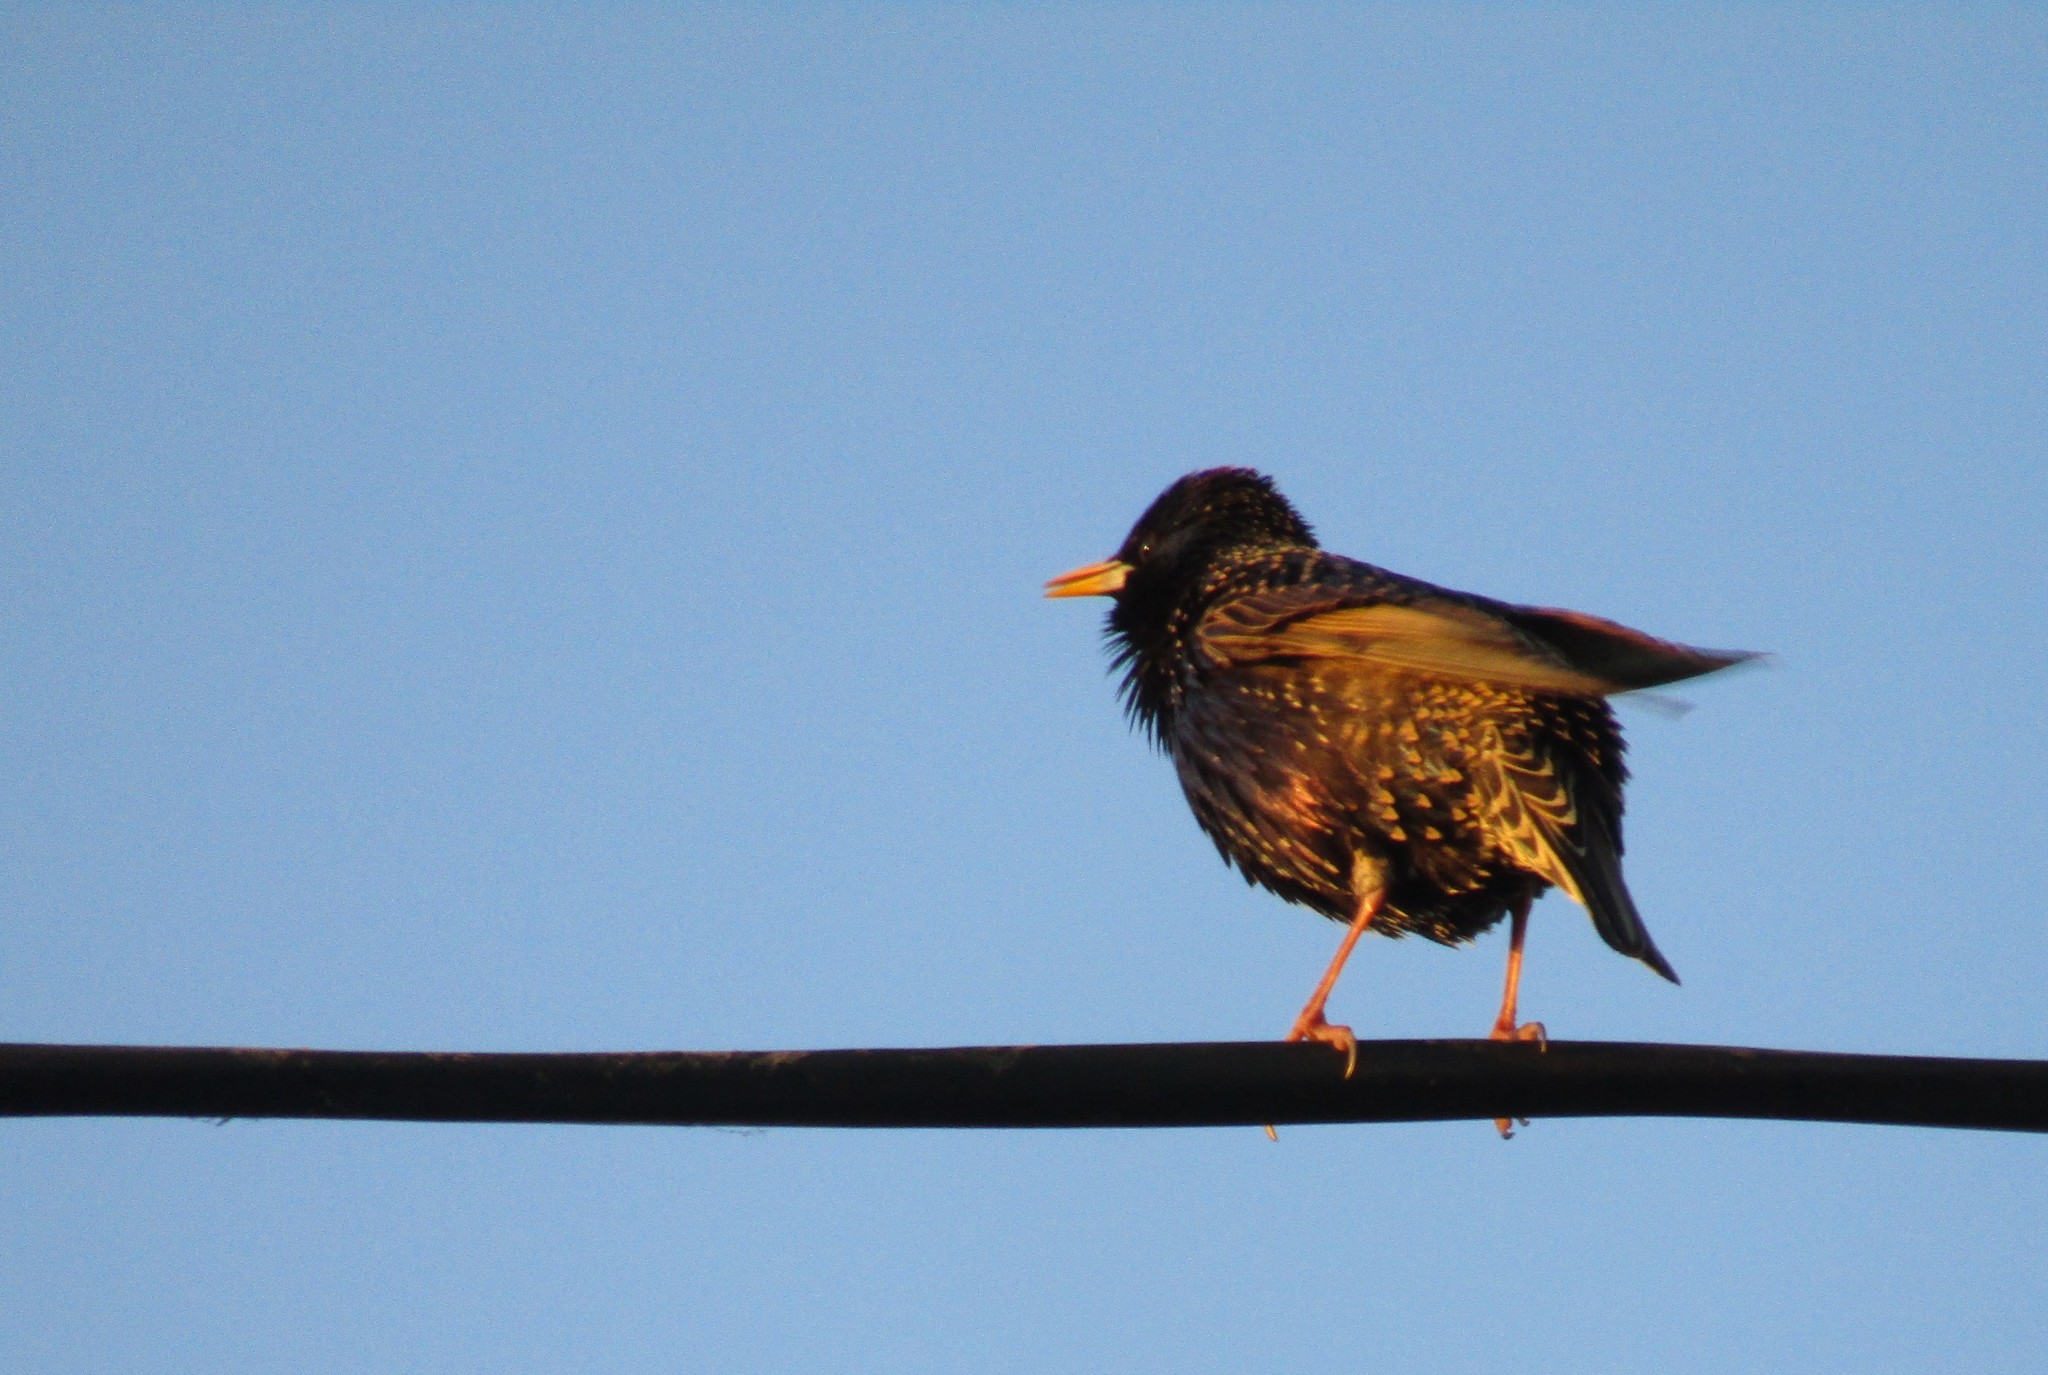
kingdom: Animalia
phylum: Chordata
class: Aves
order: Passeriformes
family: Sturnidae
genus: Sturnus
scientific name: Sturnus vulgaris
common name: Common starling
